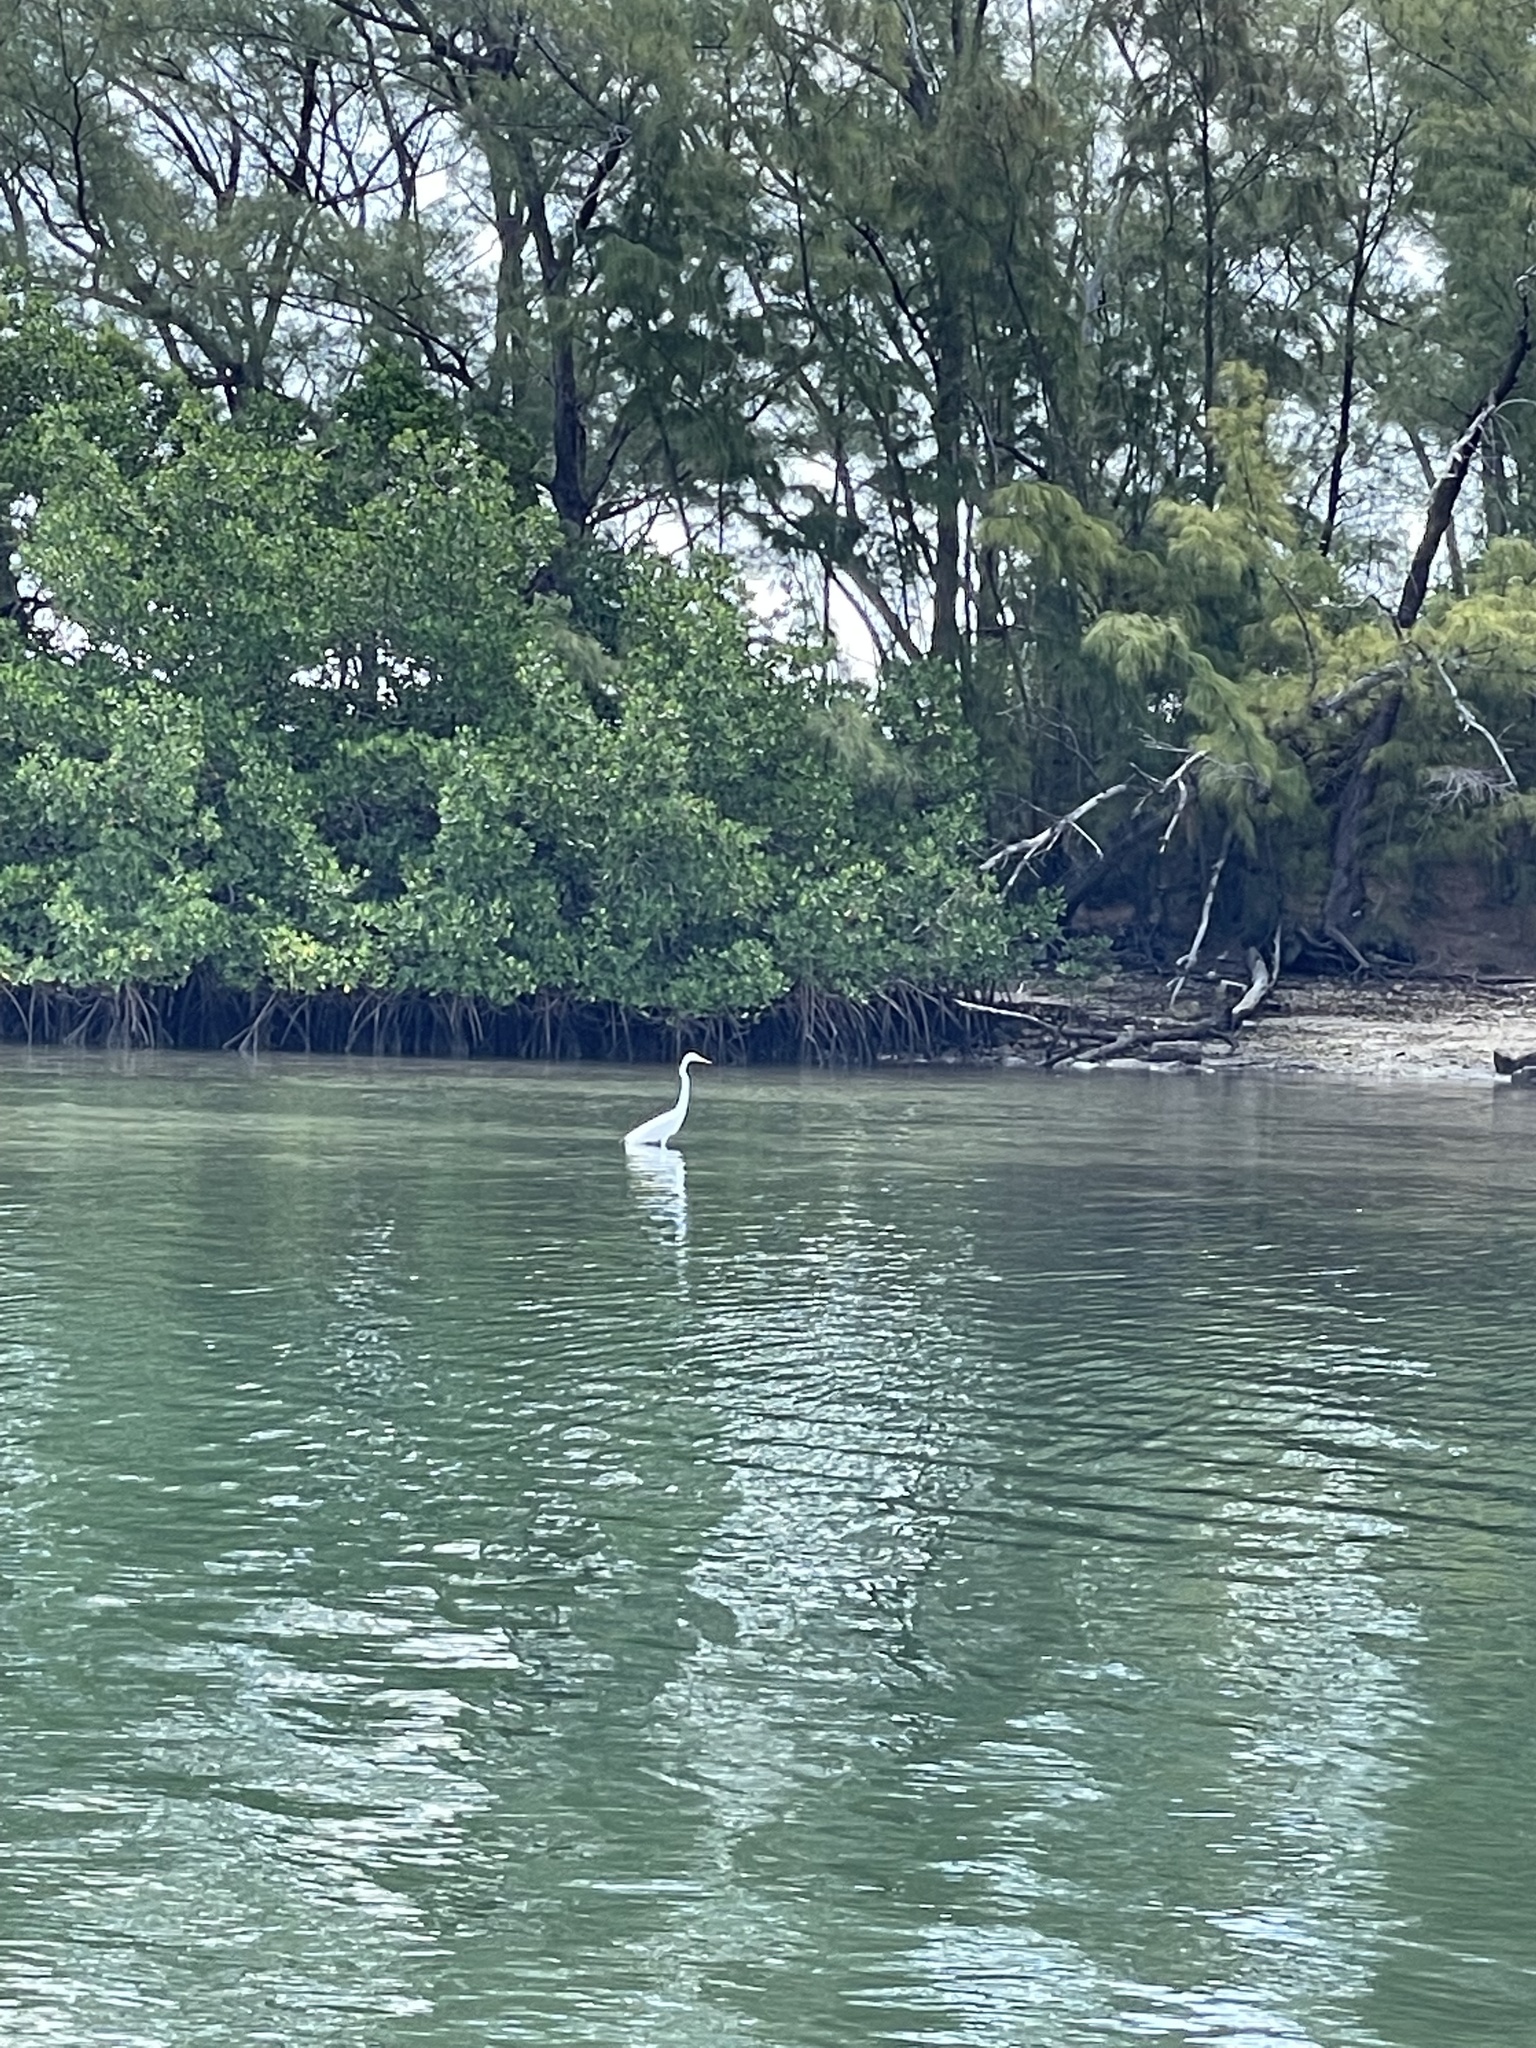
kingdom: Animalia
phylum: Chordata
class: Aves
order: Pelecaniformes
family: Ardeidae
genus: Ardea
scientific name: Ardea alba
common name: Great egret
